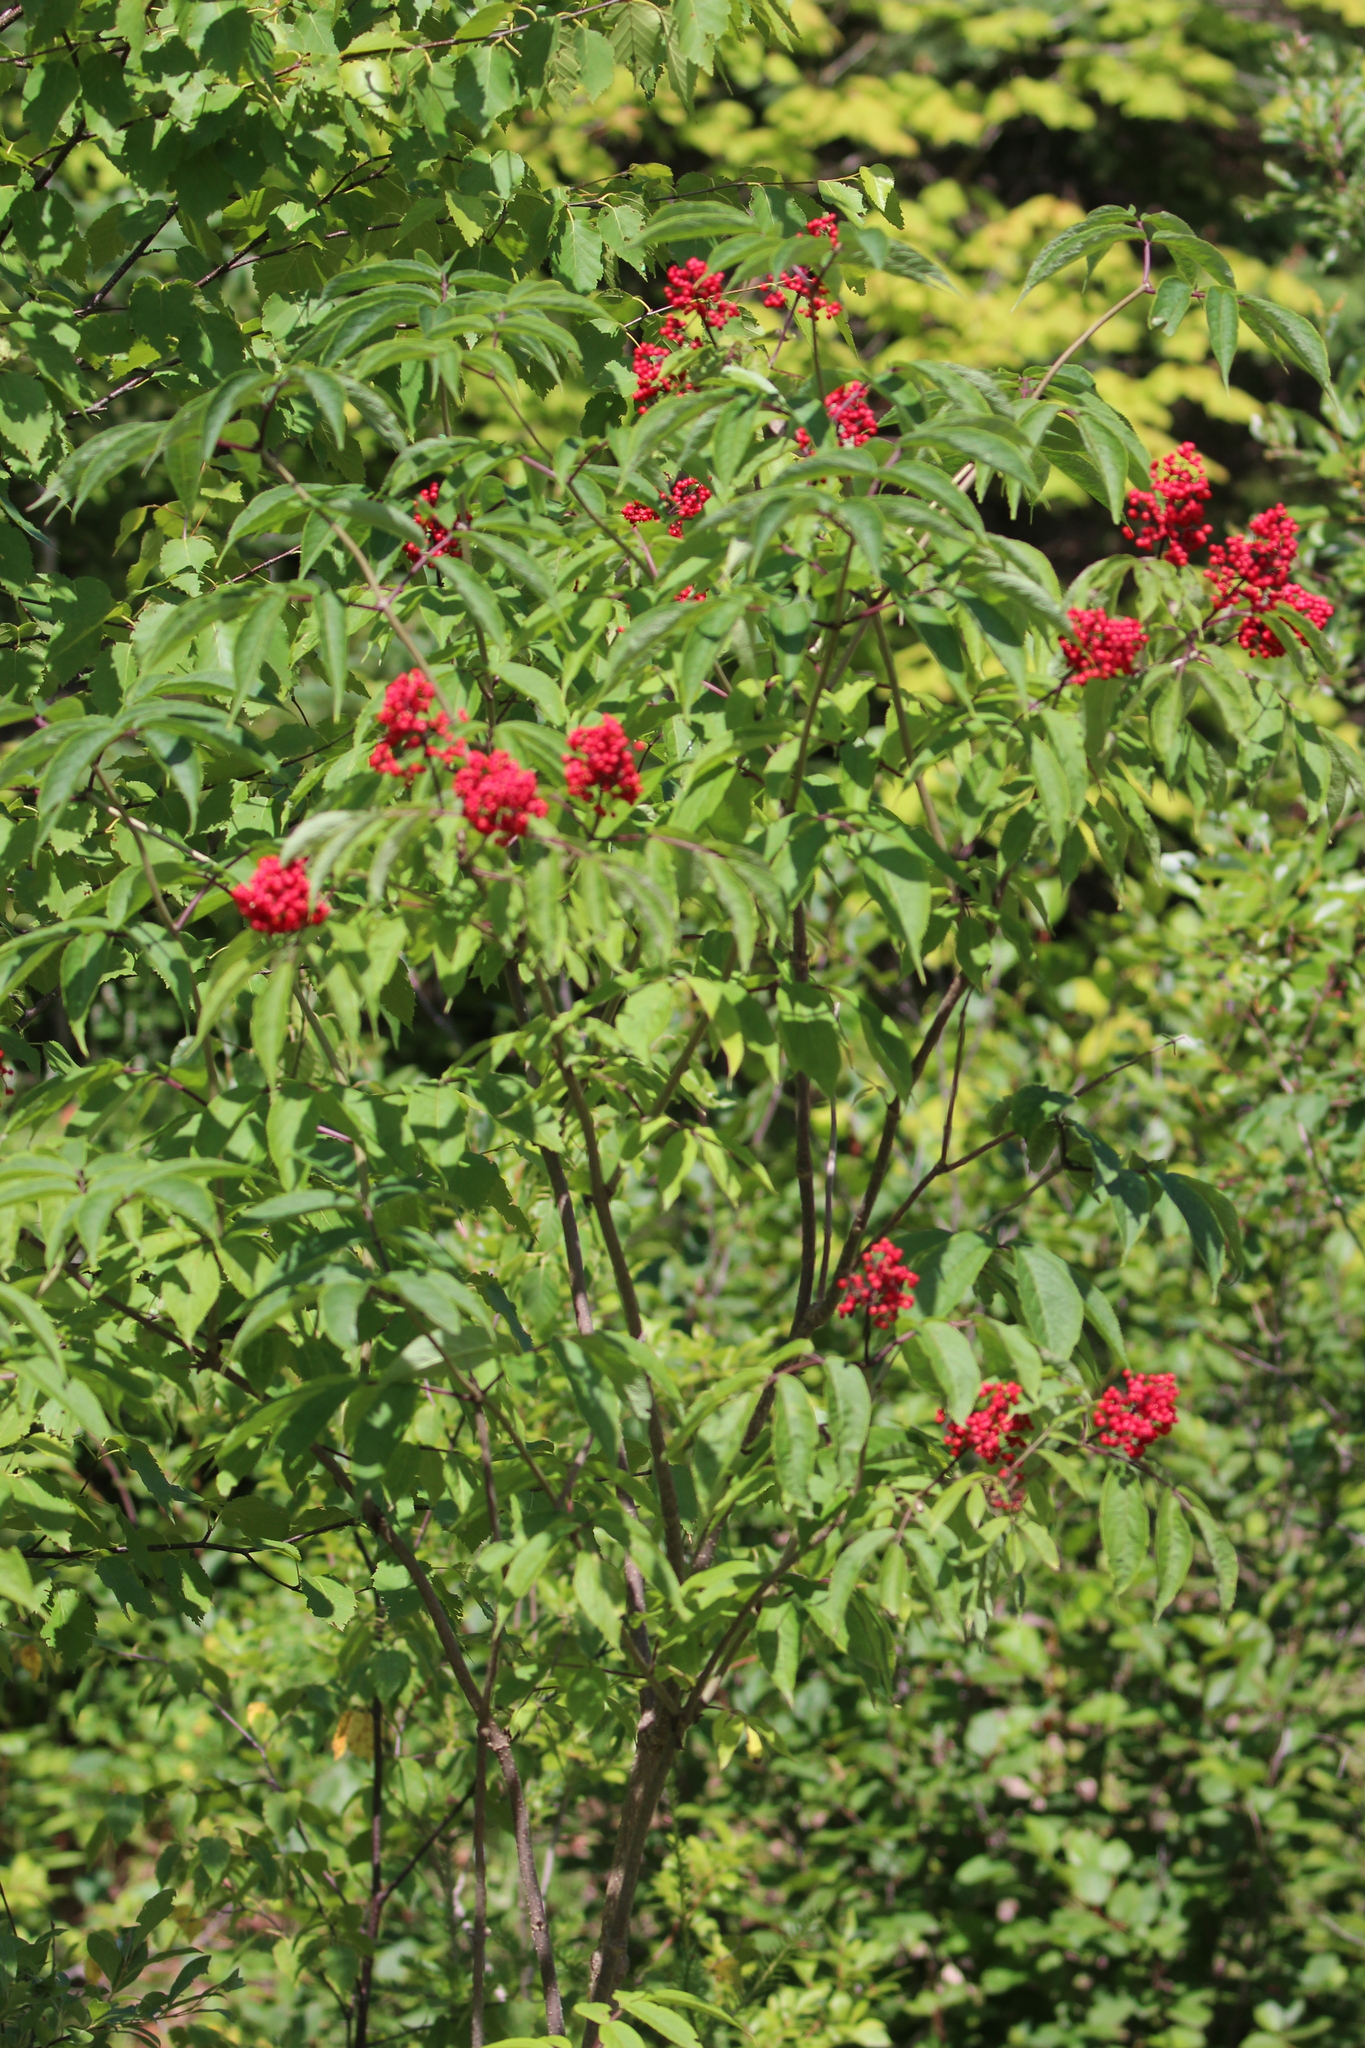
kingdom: Plantae
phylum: Tracheophyta
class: Magnoliopsida
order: Dipsacales
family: Viburnaceae
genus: Sambucus
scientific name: Sambucus racemosa
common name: Red-berried elder
